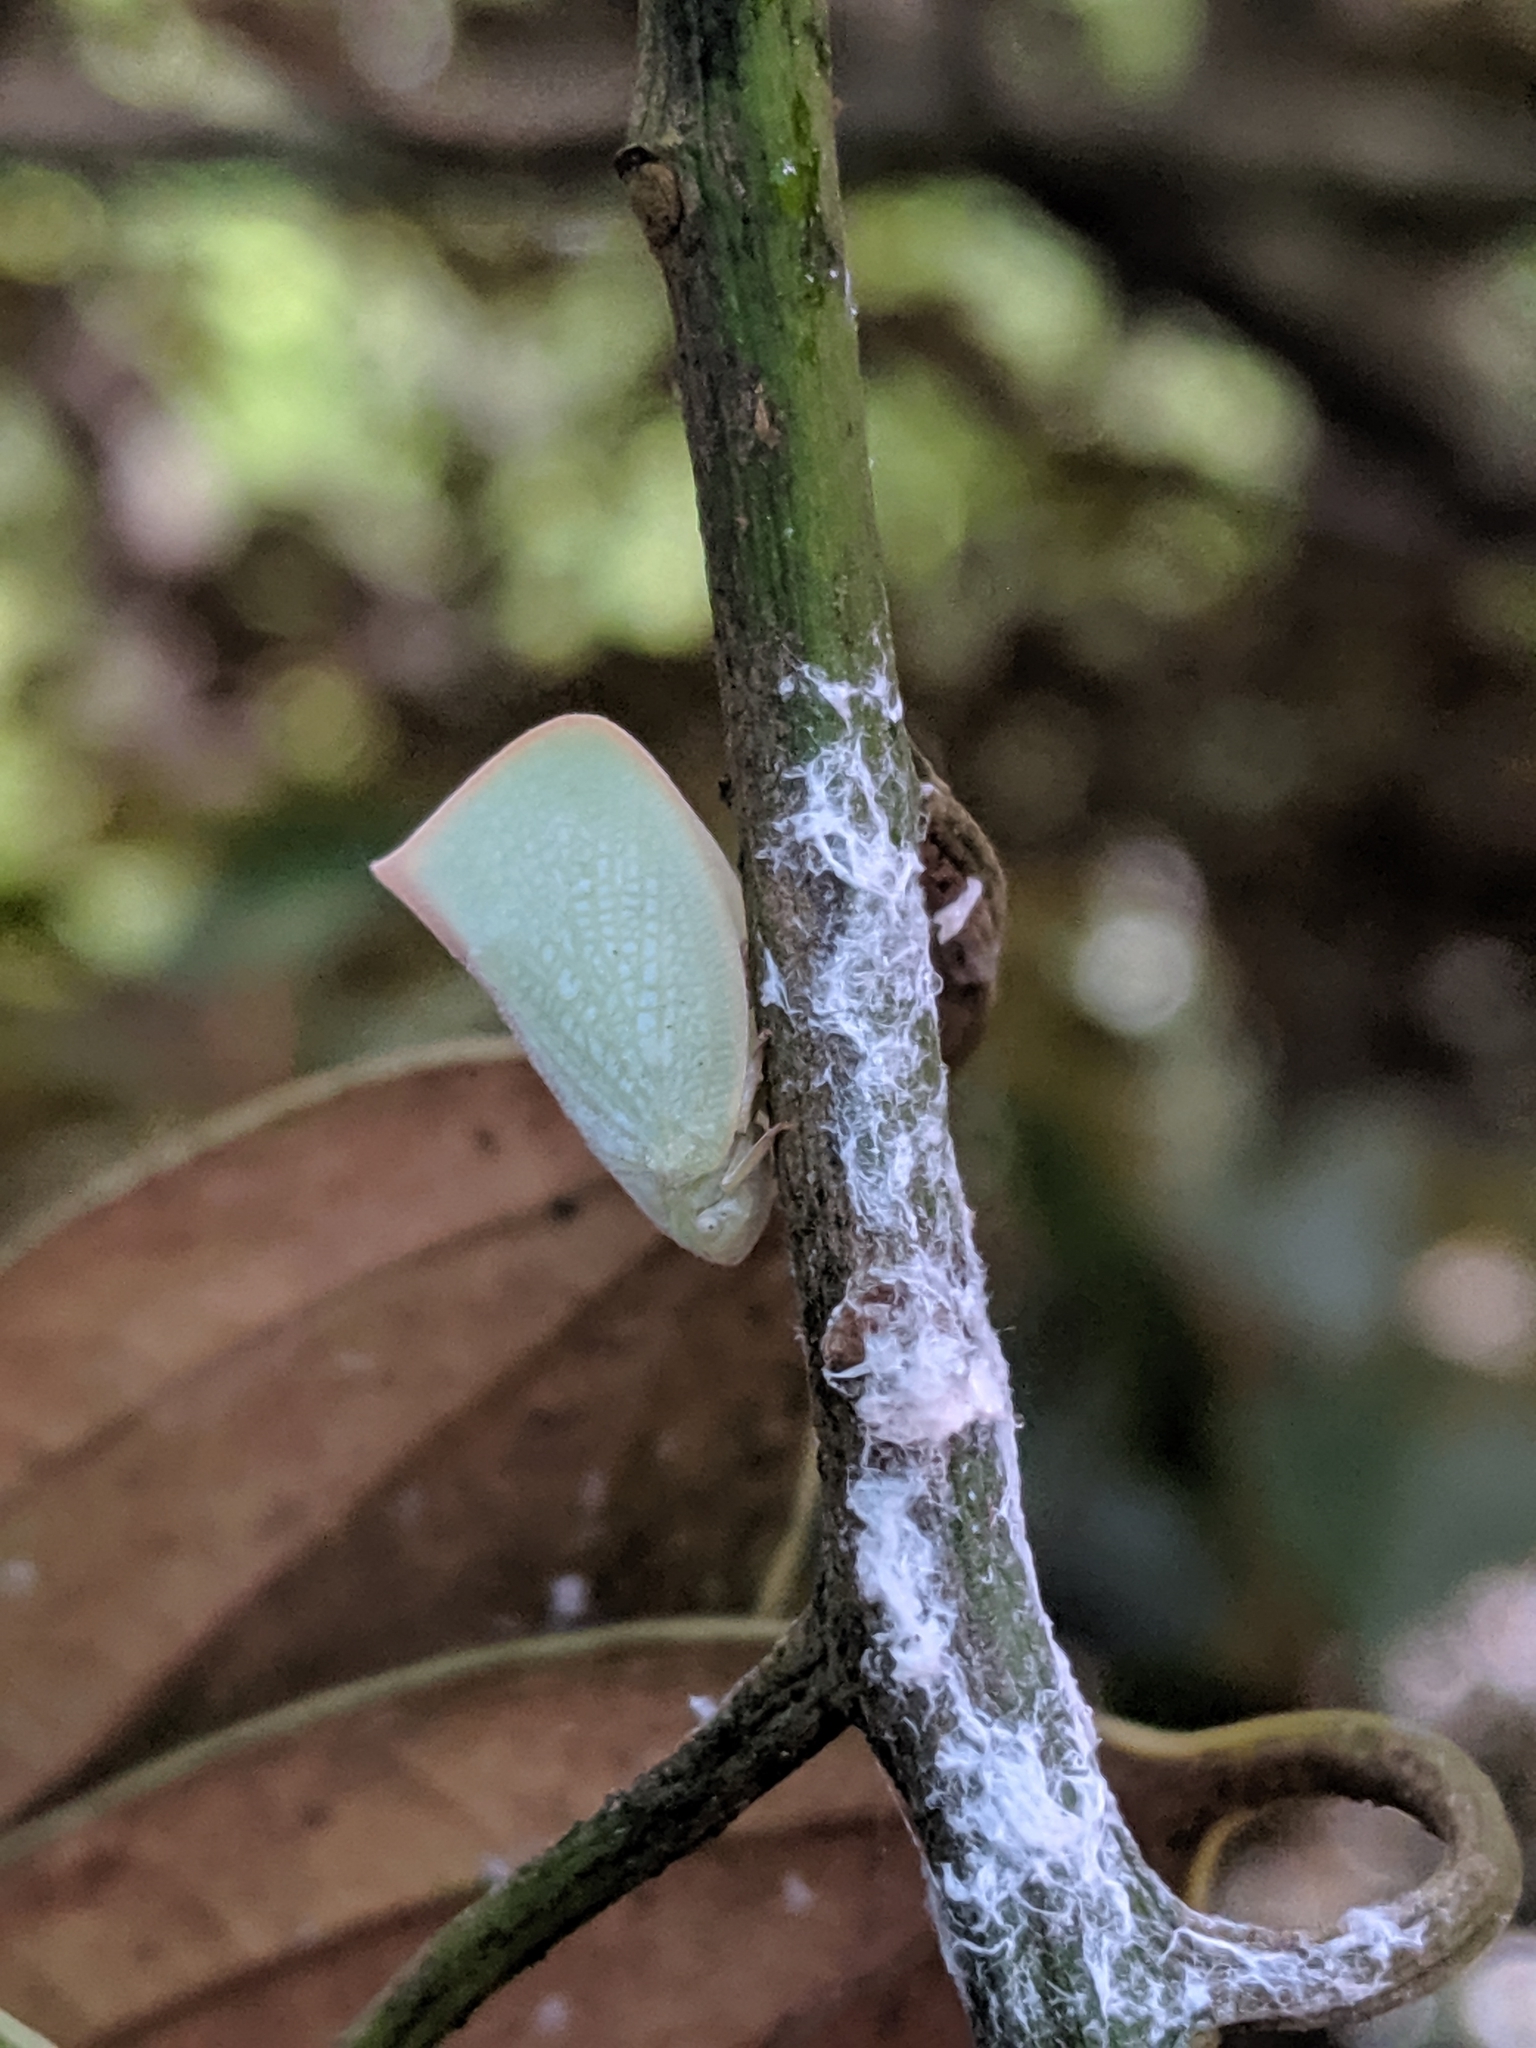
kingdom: Animalia
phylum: Arthropoda
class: Insecta
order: Hemiptera
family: Flatidae
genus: Geisha
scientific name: Geisha distinctissima
